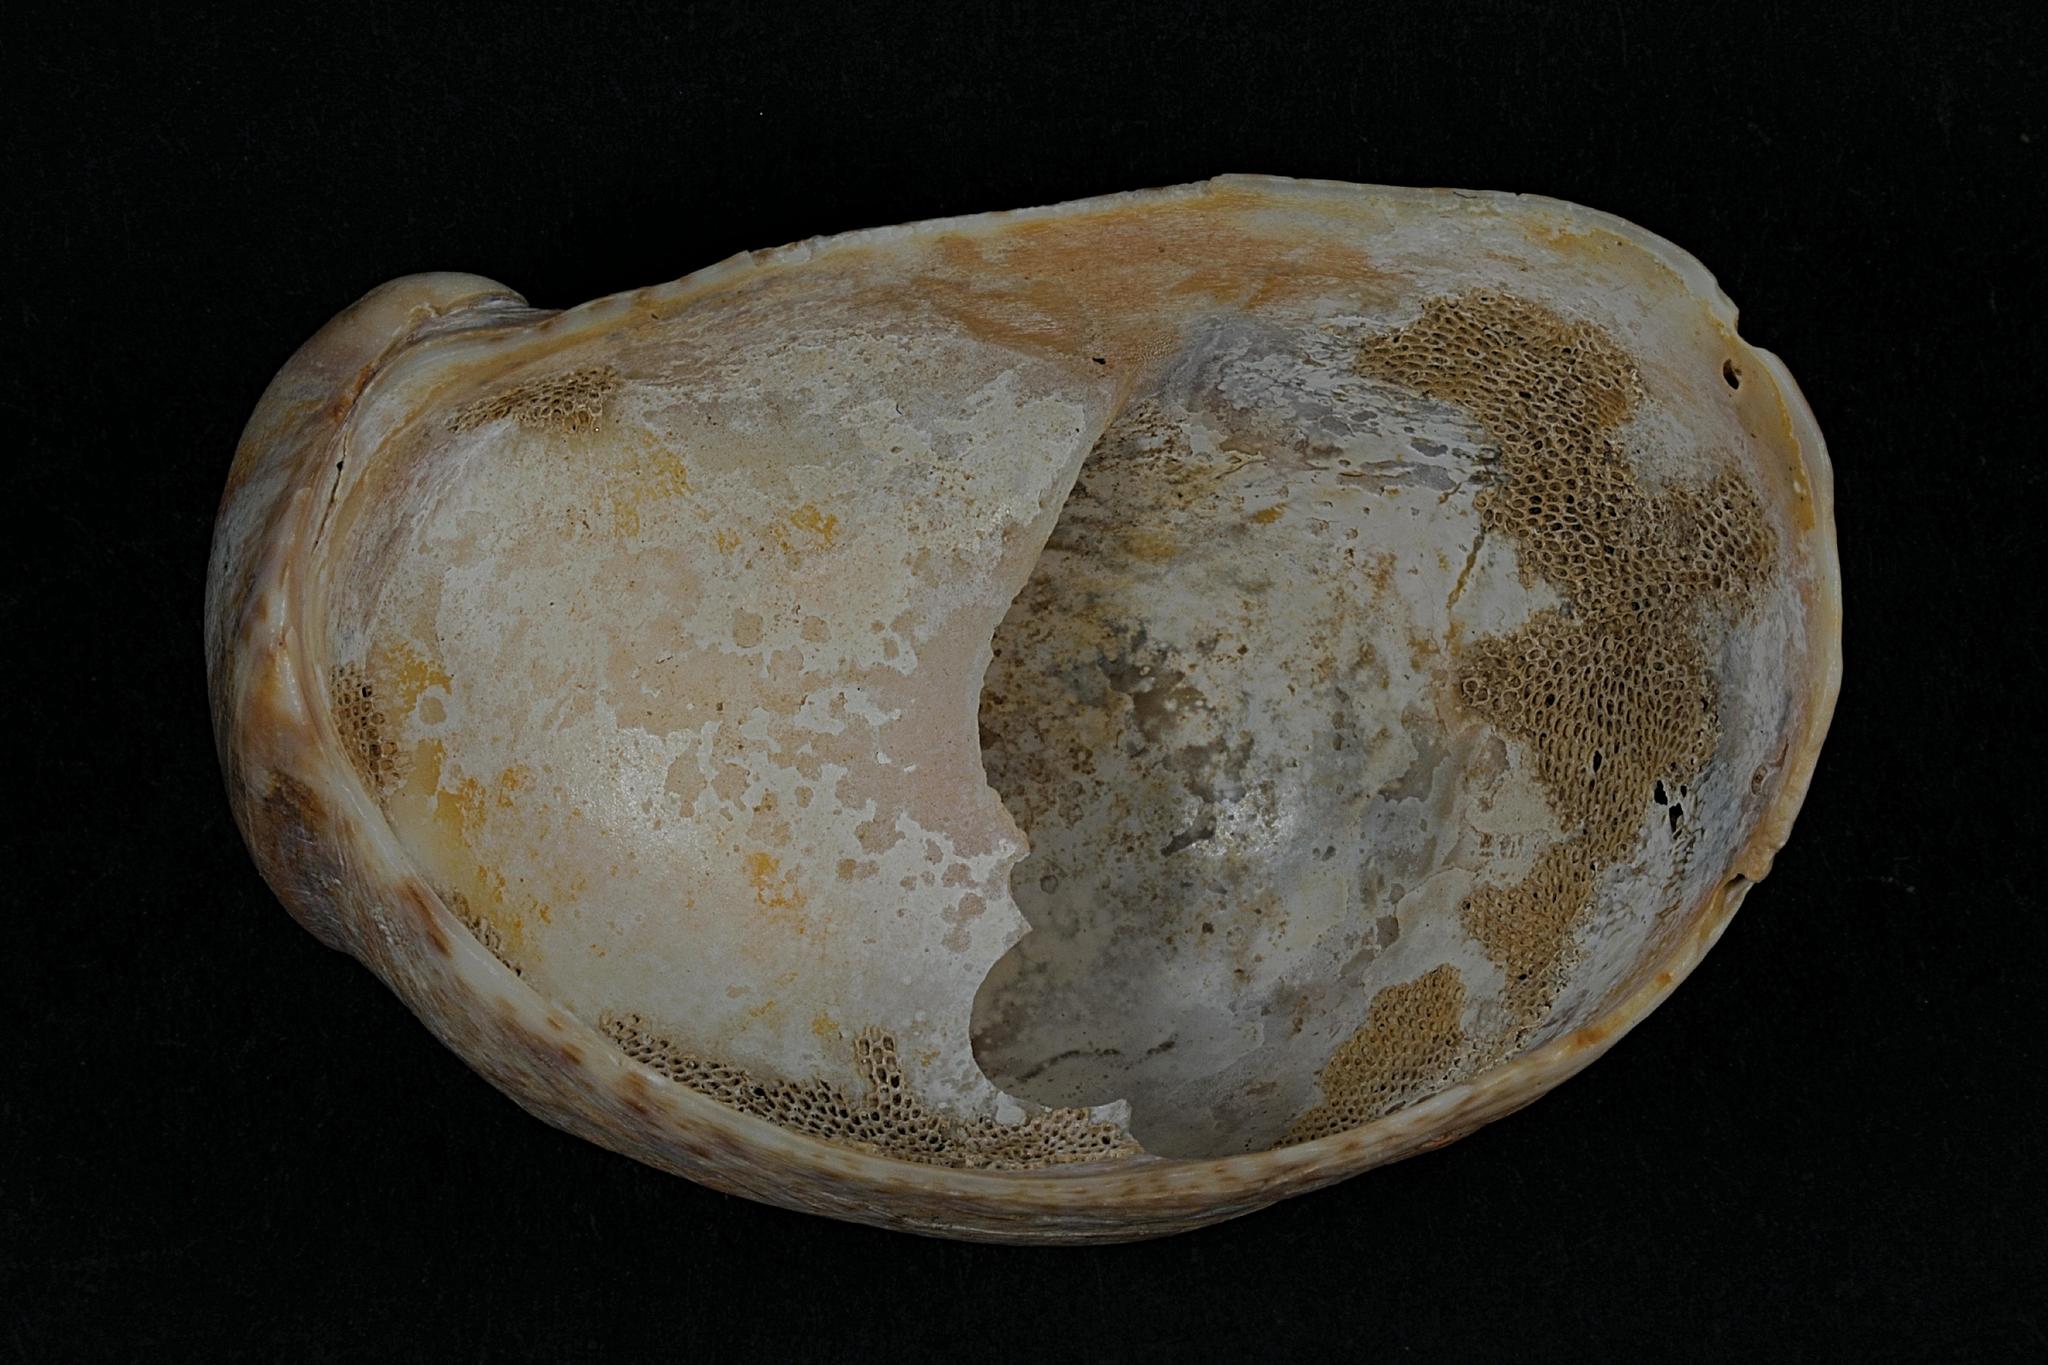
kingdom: Animalia
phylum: Mollusca
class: Gastropoda
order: Littorinimorpha
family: Calyptraeidae
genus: Crepidula
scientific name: Crepidula fornicata
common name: Slipper limpet
